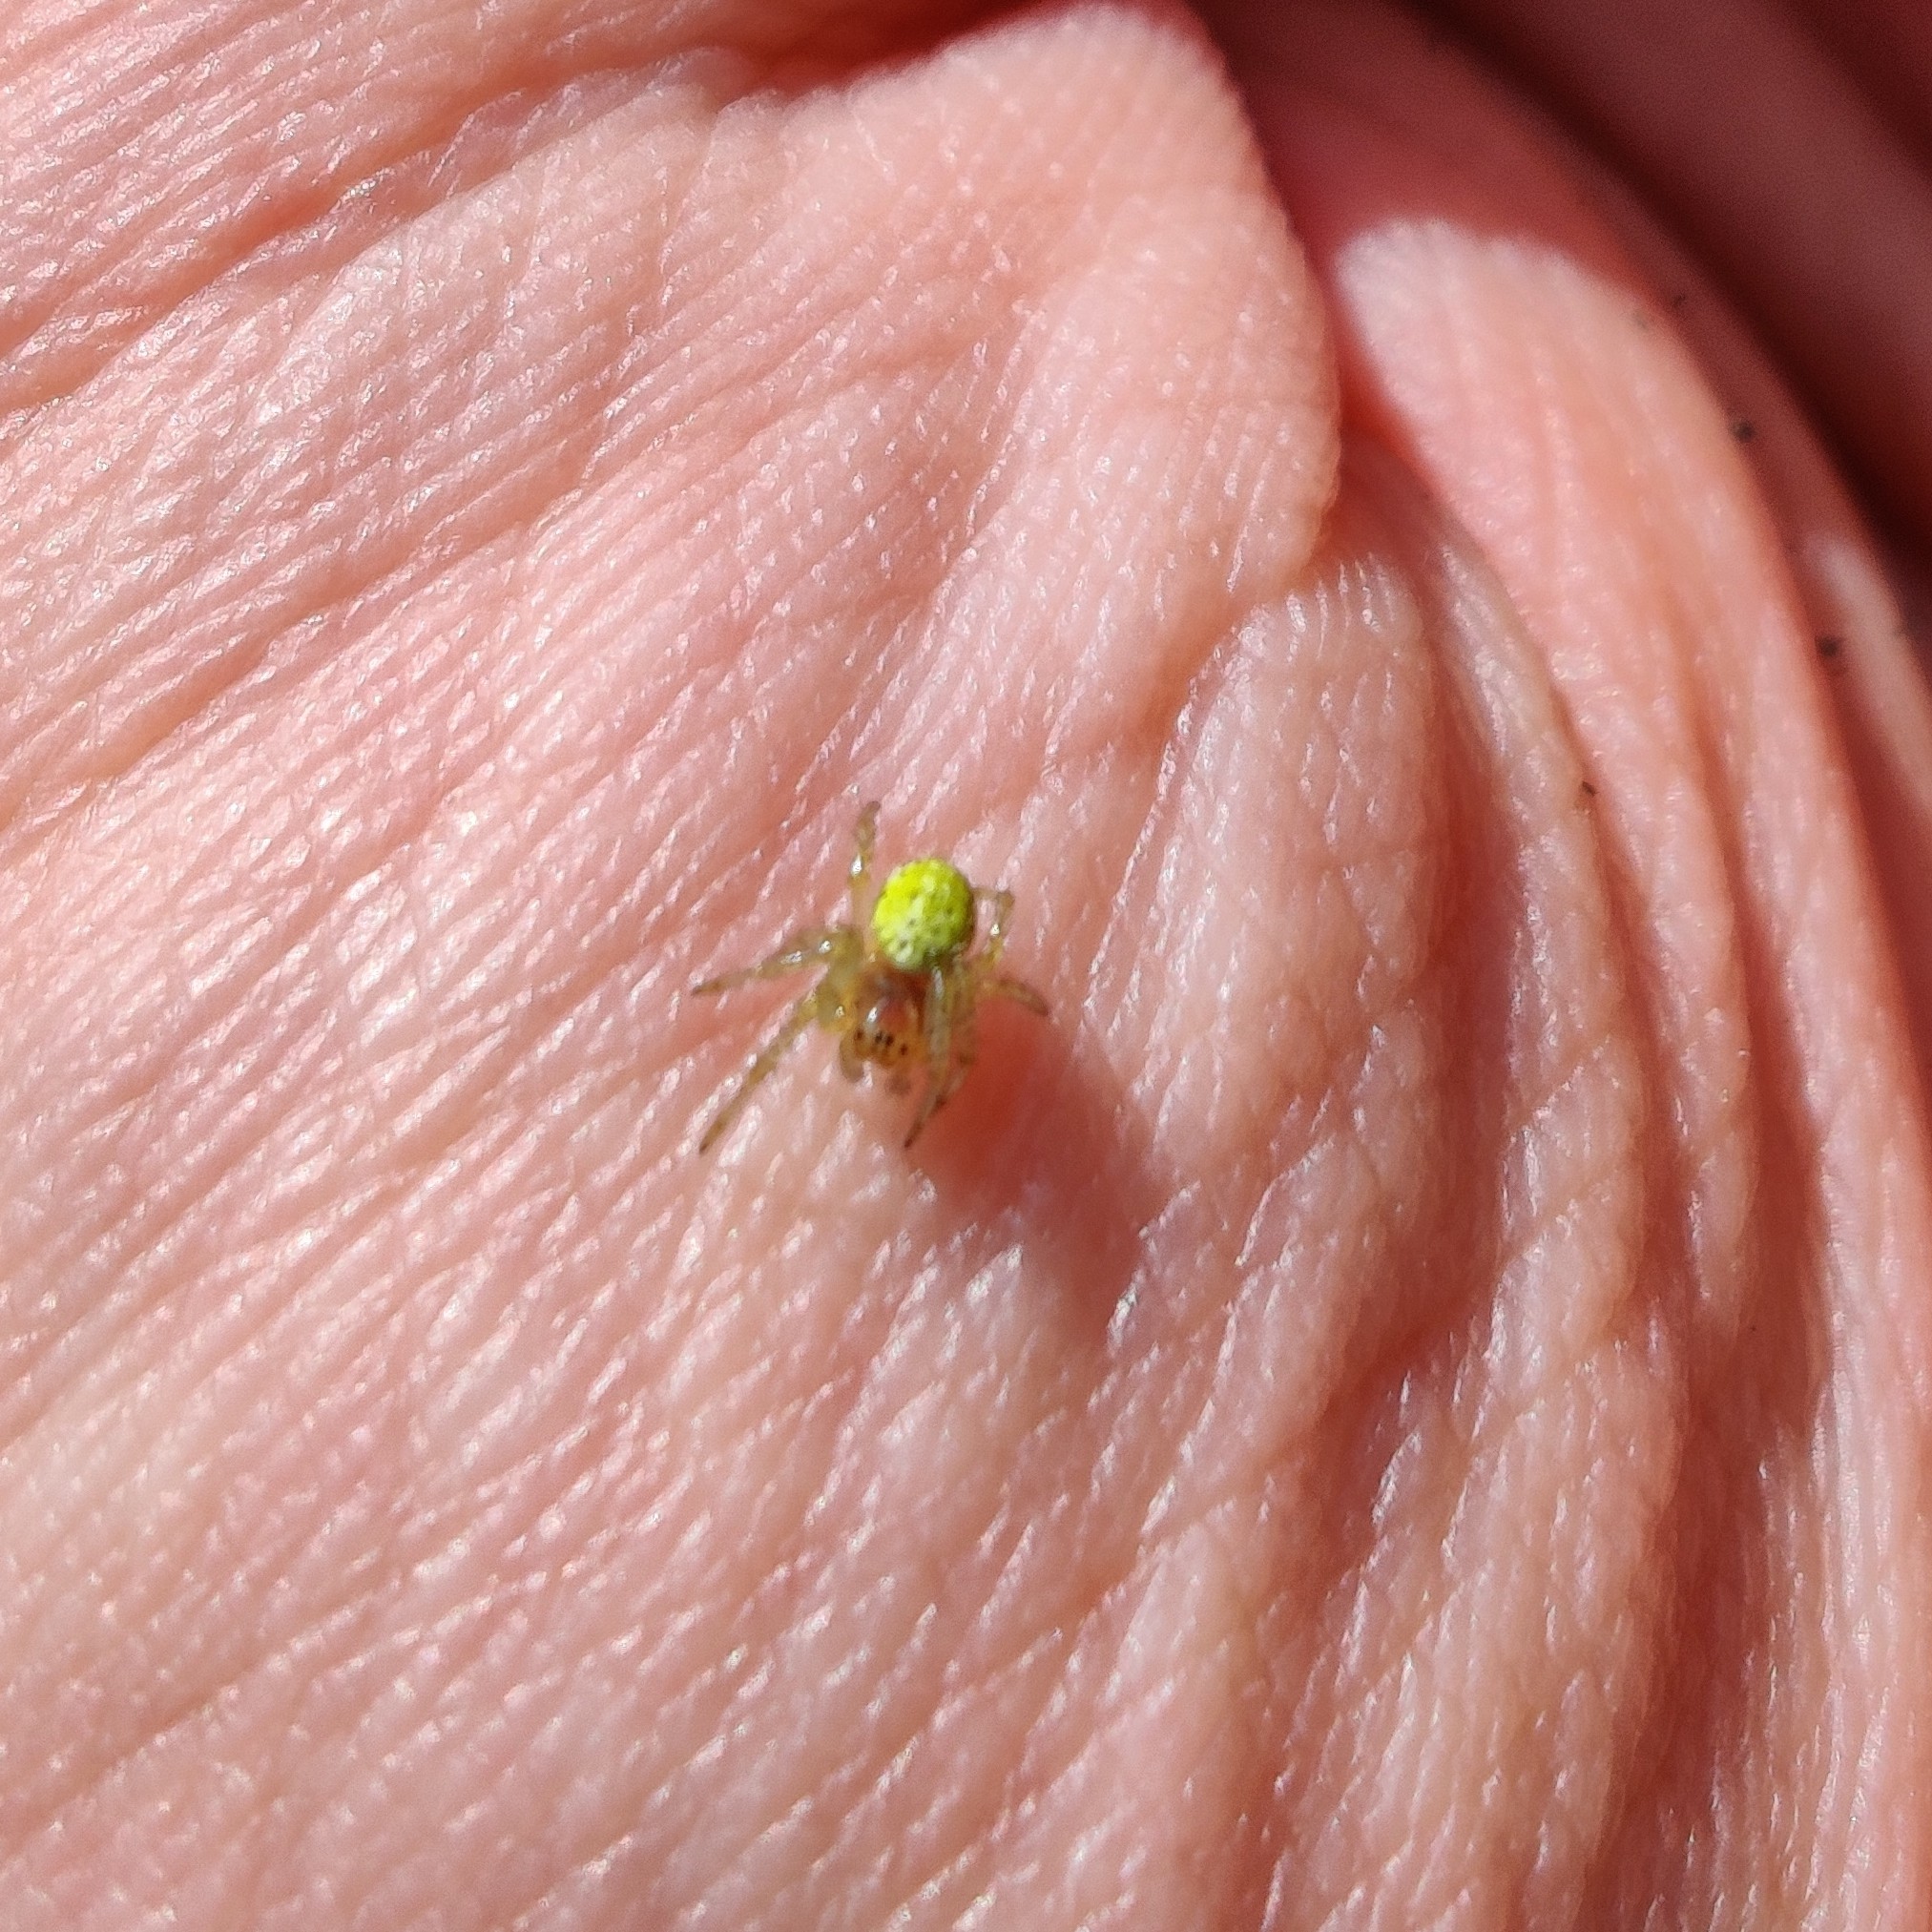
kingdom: Animalia
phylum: Arthropoda
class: Arachnida
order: Araneae
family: Araneidae
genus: Araniella
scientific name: Araniella
